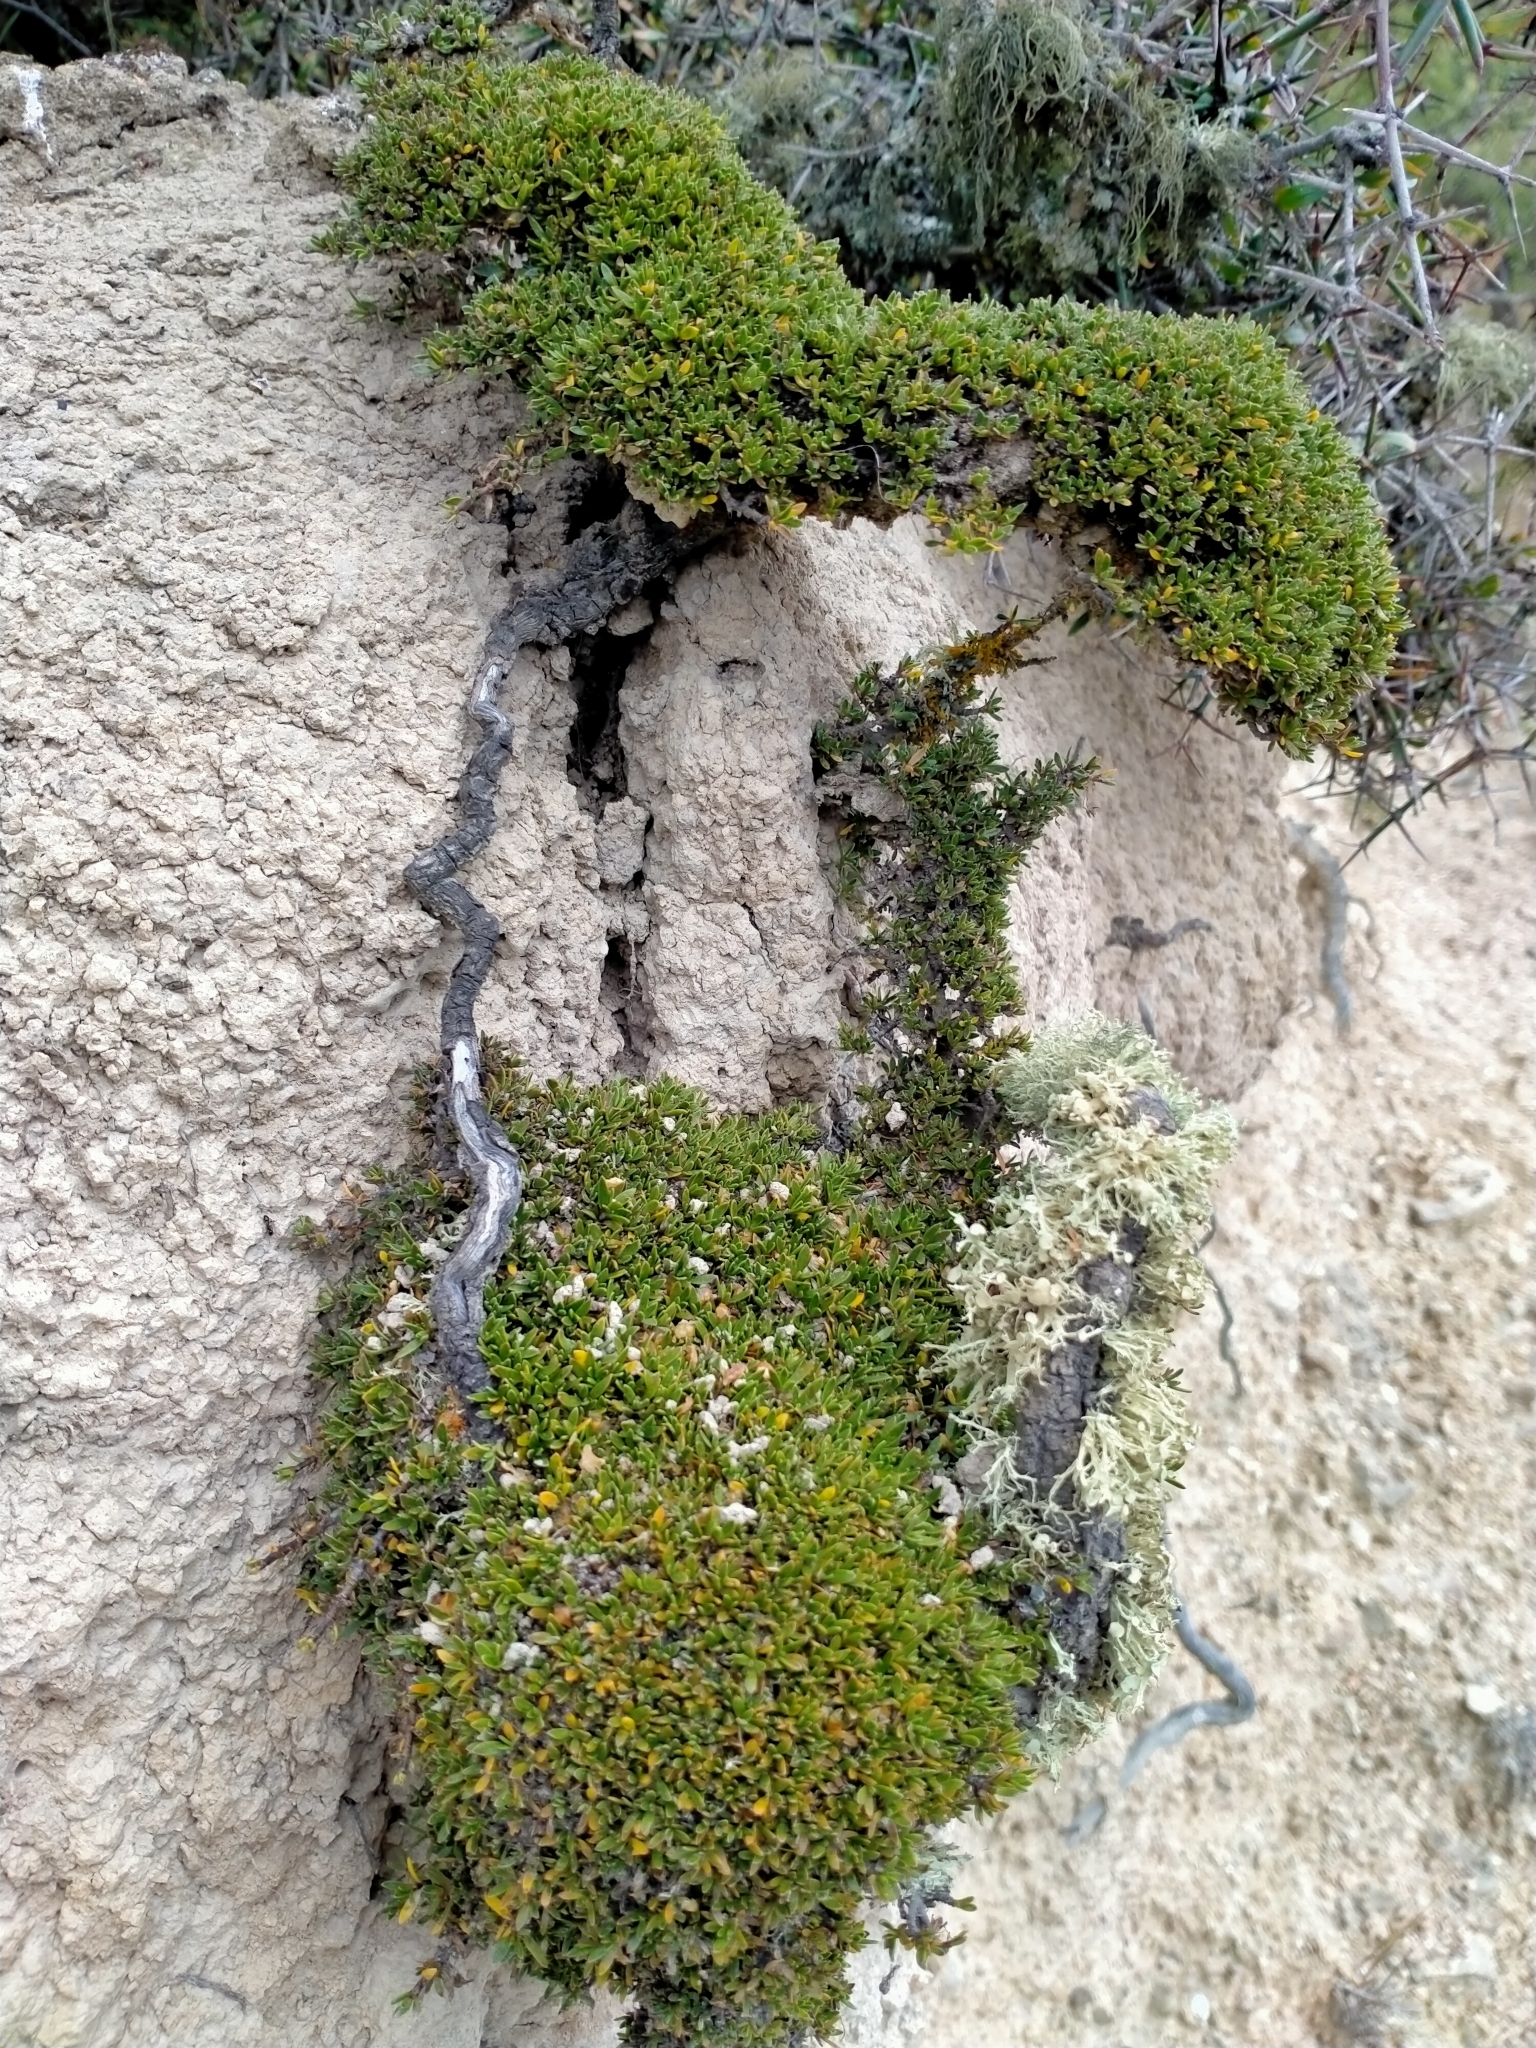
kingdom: Plantae
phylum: Tracheophyta
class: Magnoliopsida
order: Gentianales
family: Rubiaceae
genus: Coprosma
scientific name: Coprosma petriei
